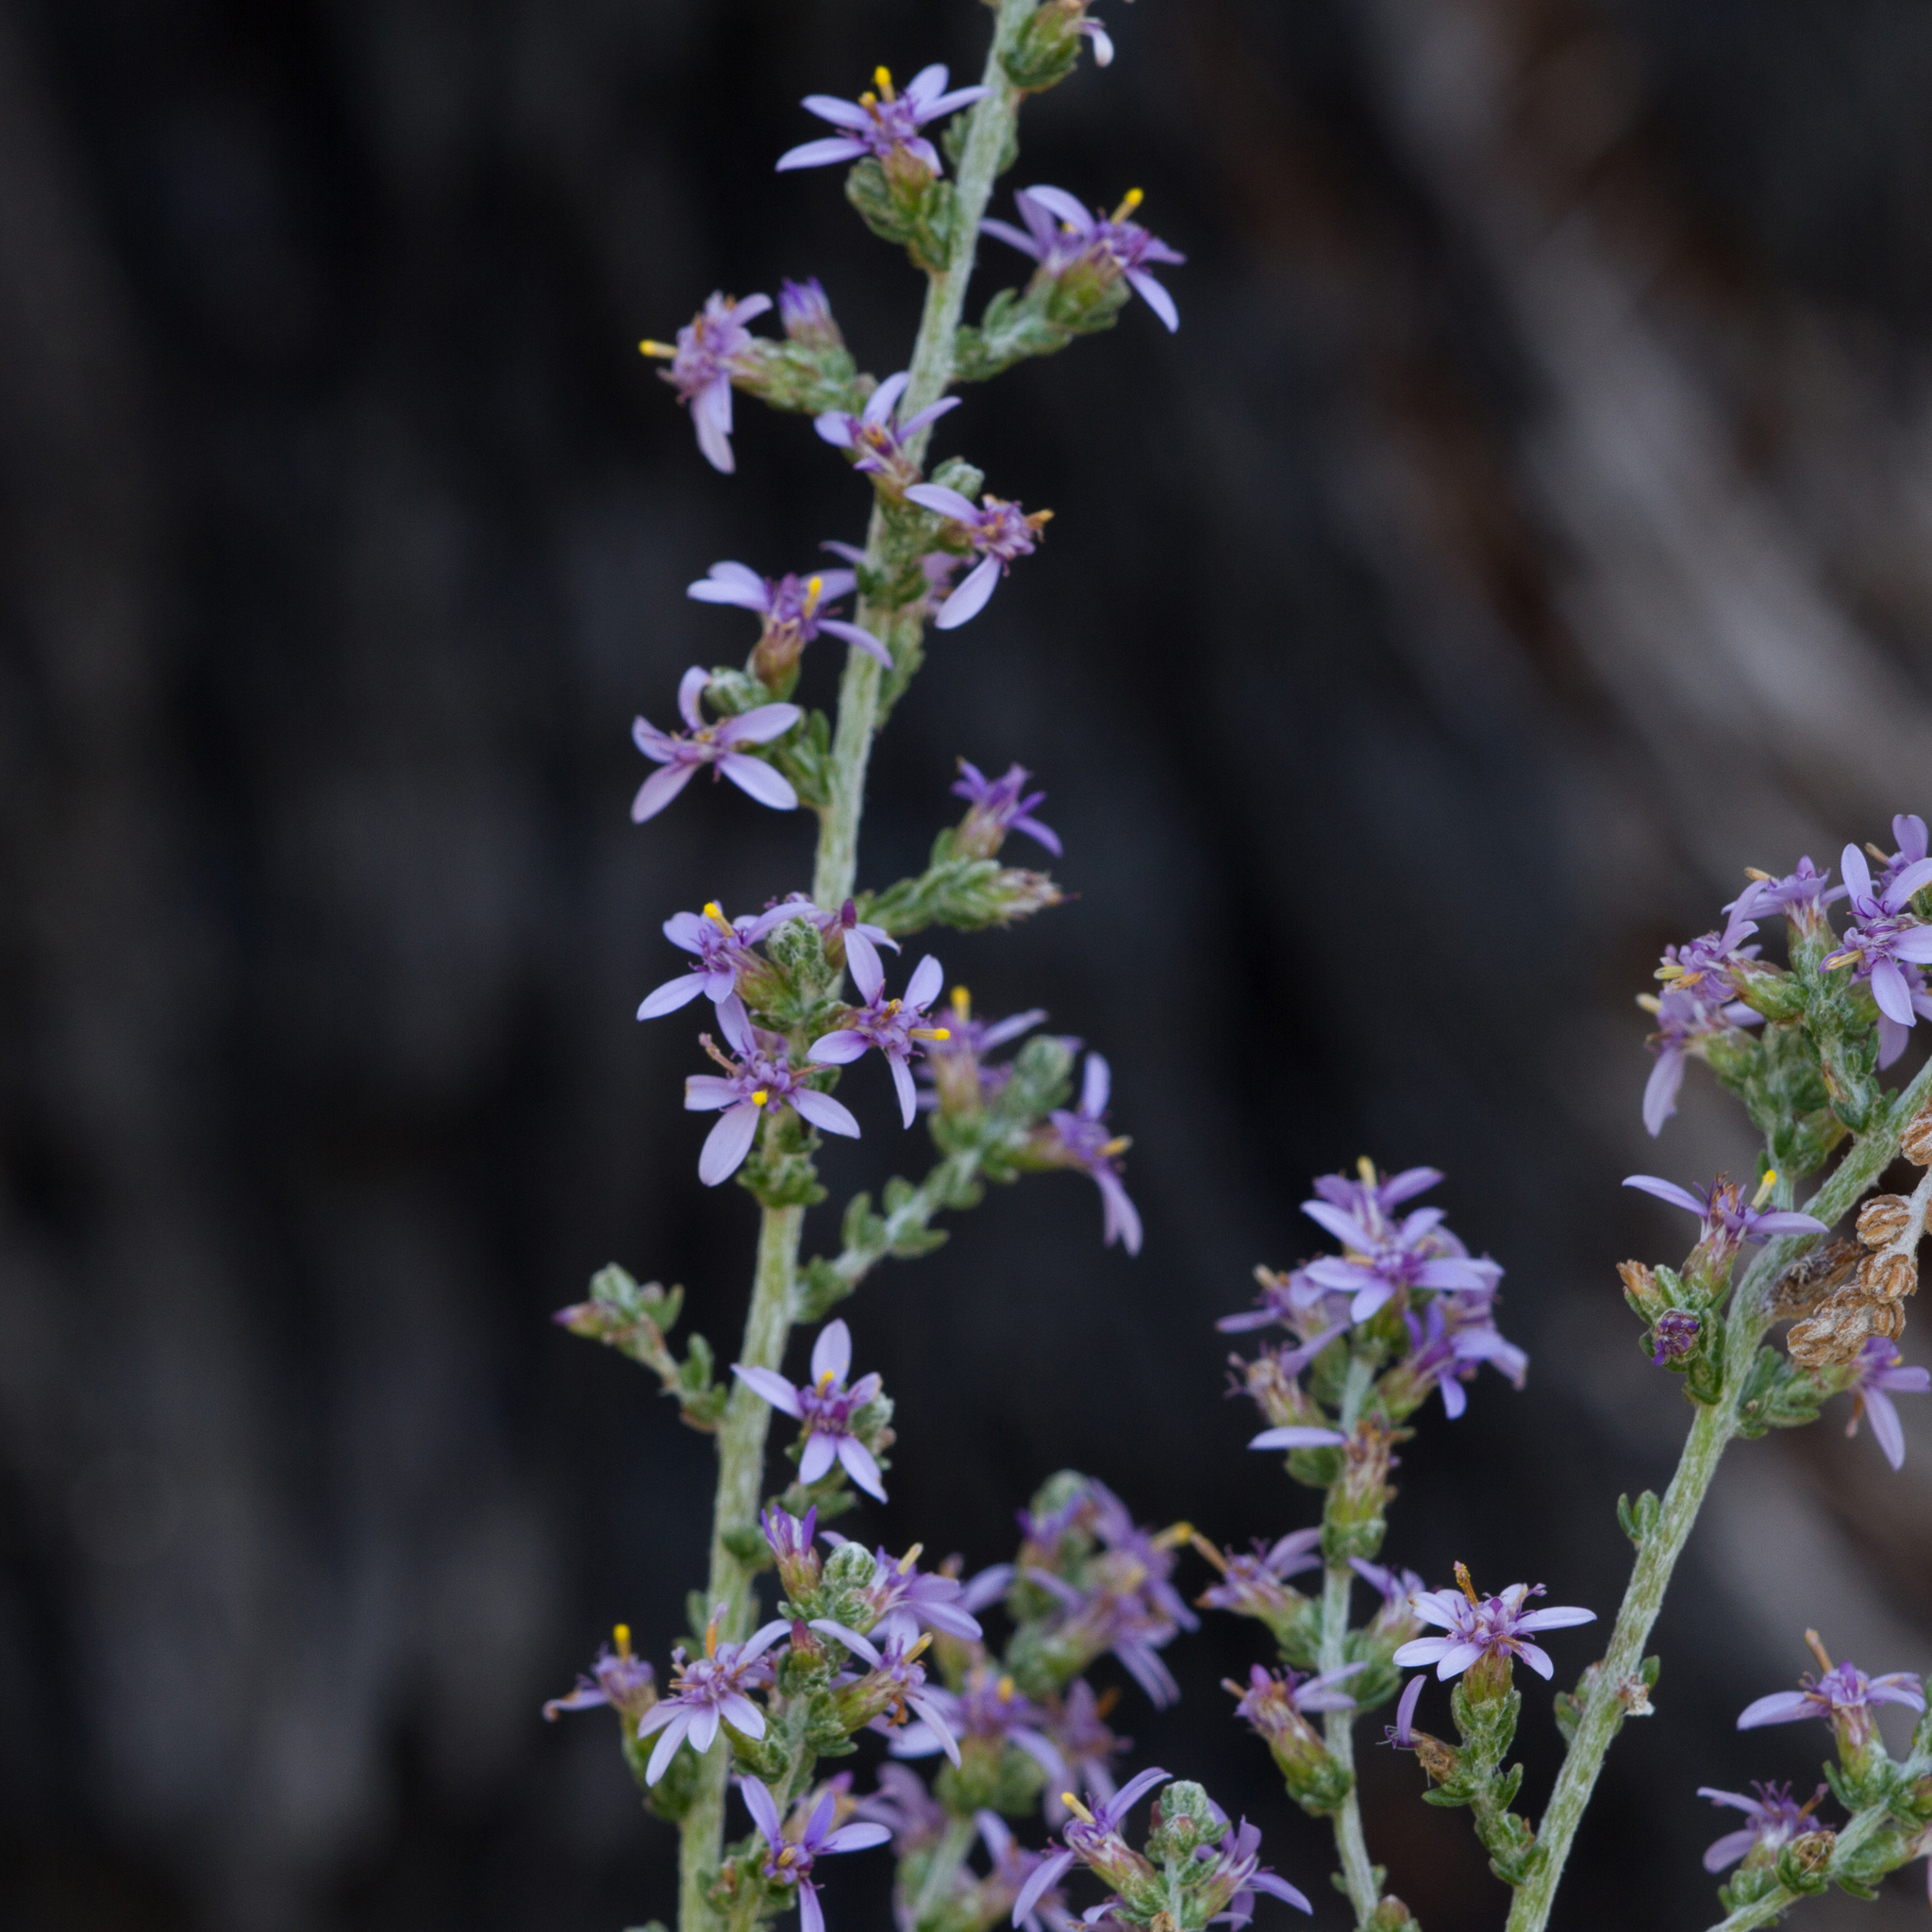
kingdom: Plantae
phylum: Tracheophyta
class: Magnoliopsida
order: Asterales
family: Asteraceae
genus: Olearia
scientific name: Olearia floribunda
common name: Heath daisybush
